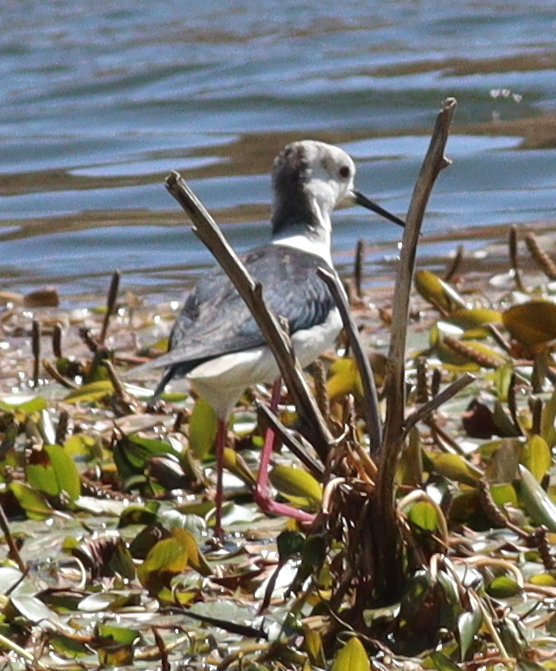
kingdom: Animalia
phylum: Chordata
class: Aves
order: Charadriiformes
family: Recurvirostridae
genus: Himantopus
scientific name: Himantopus himantopus
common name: Black-winged stilt
